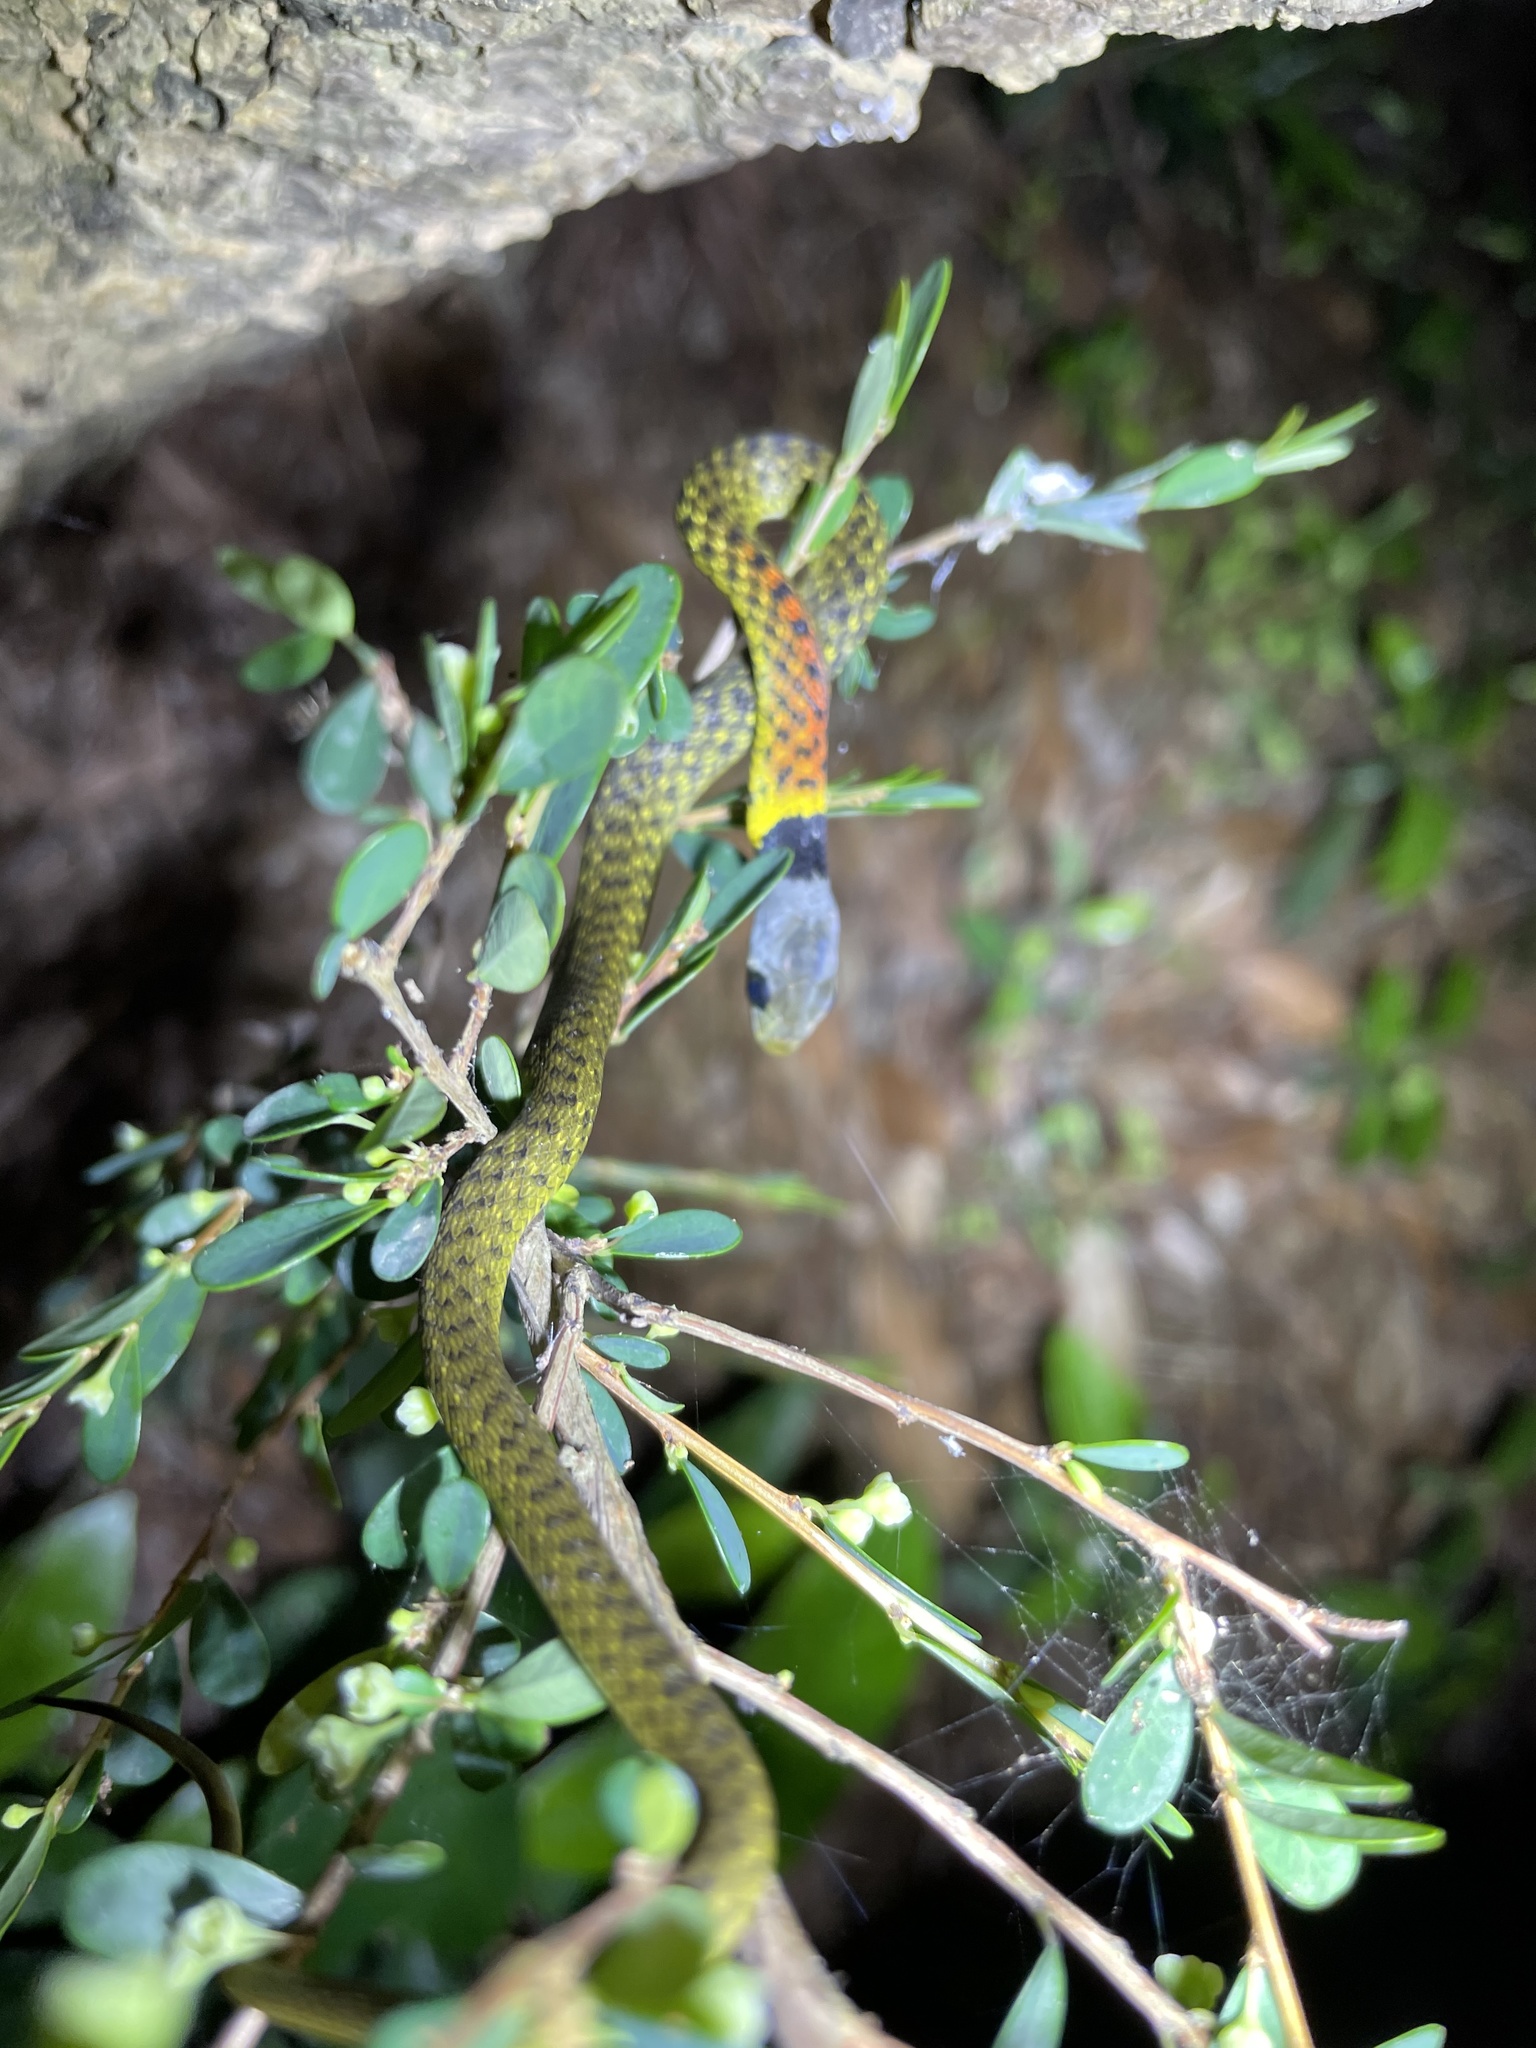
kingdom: Animalia
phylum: Chordata
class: Squamata
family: Colubridae
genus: Rhabdophis
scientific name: Rhabdophis helleri
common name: Heller’s red-necked keelback
